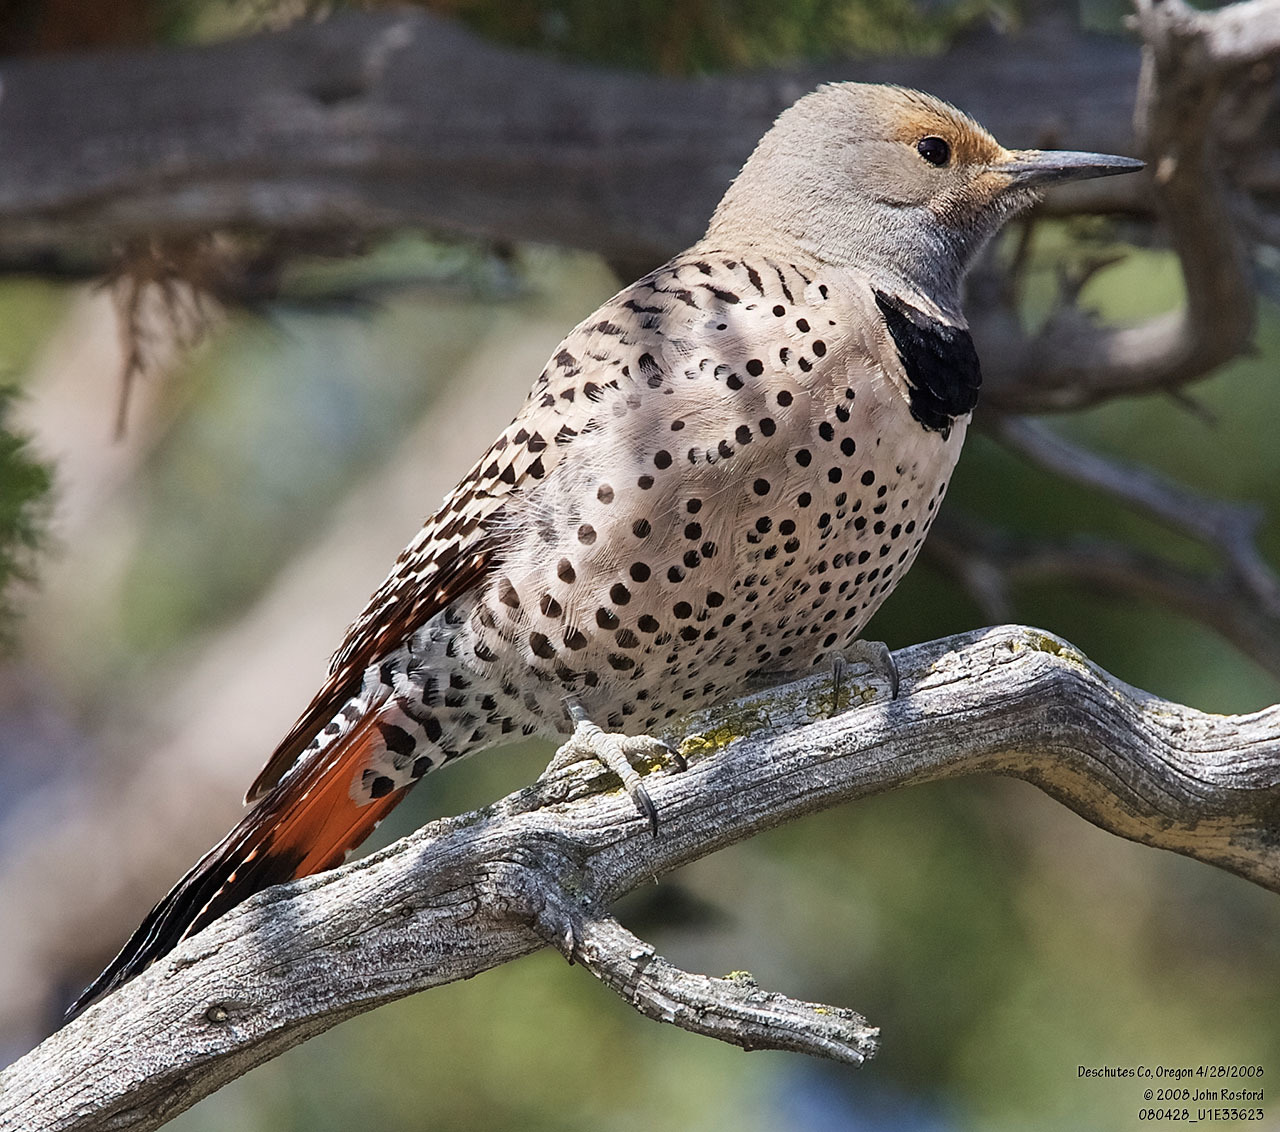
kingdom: Animalia
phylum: Chordata
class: Aves
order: Piciformes
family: Picidae
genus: Colaptes
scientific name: Colaptes auratus
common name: Northern flicker
